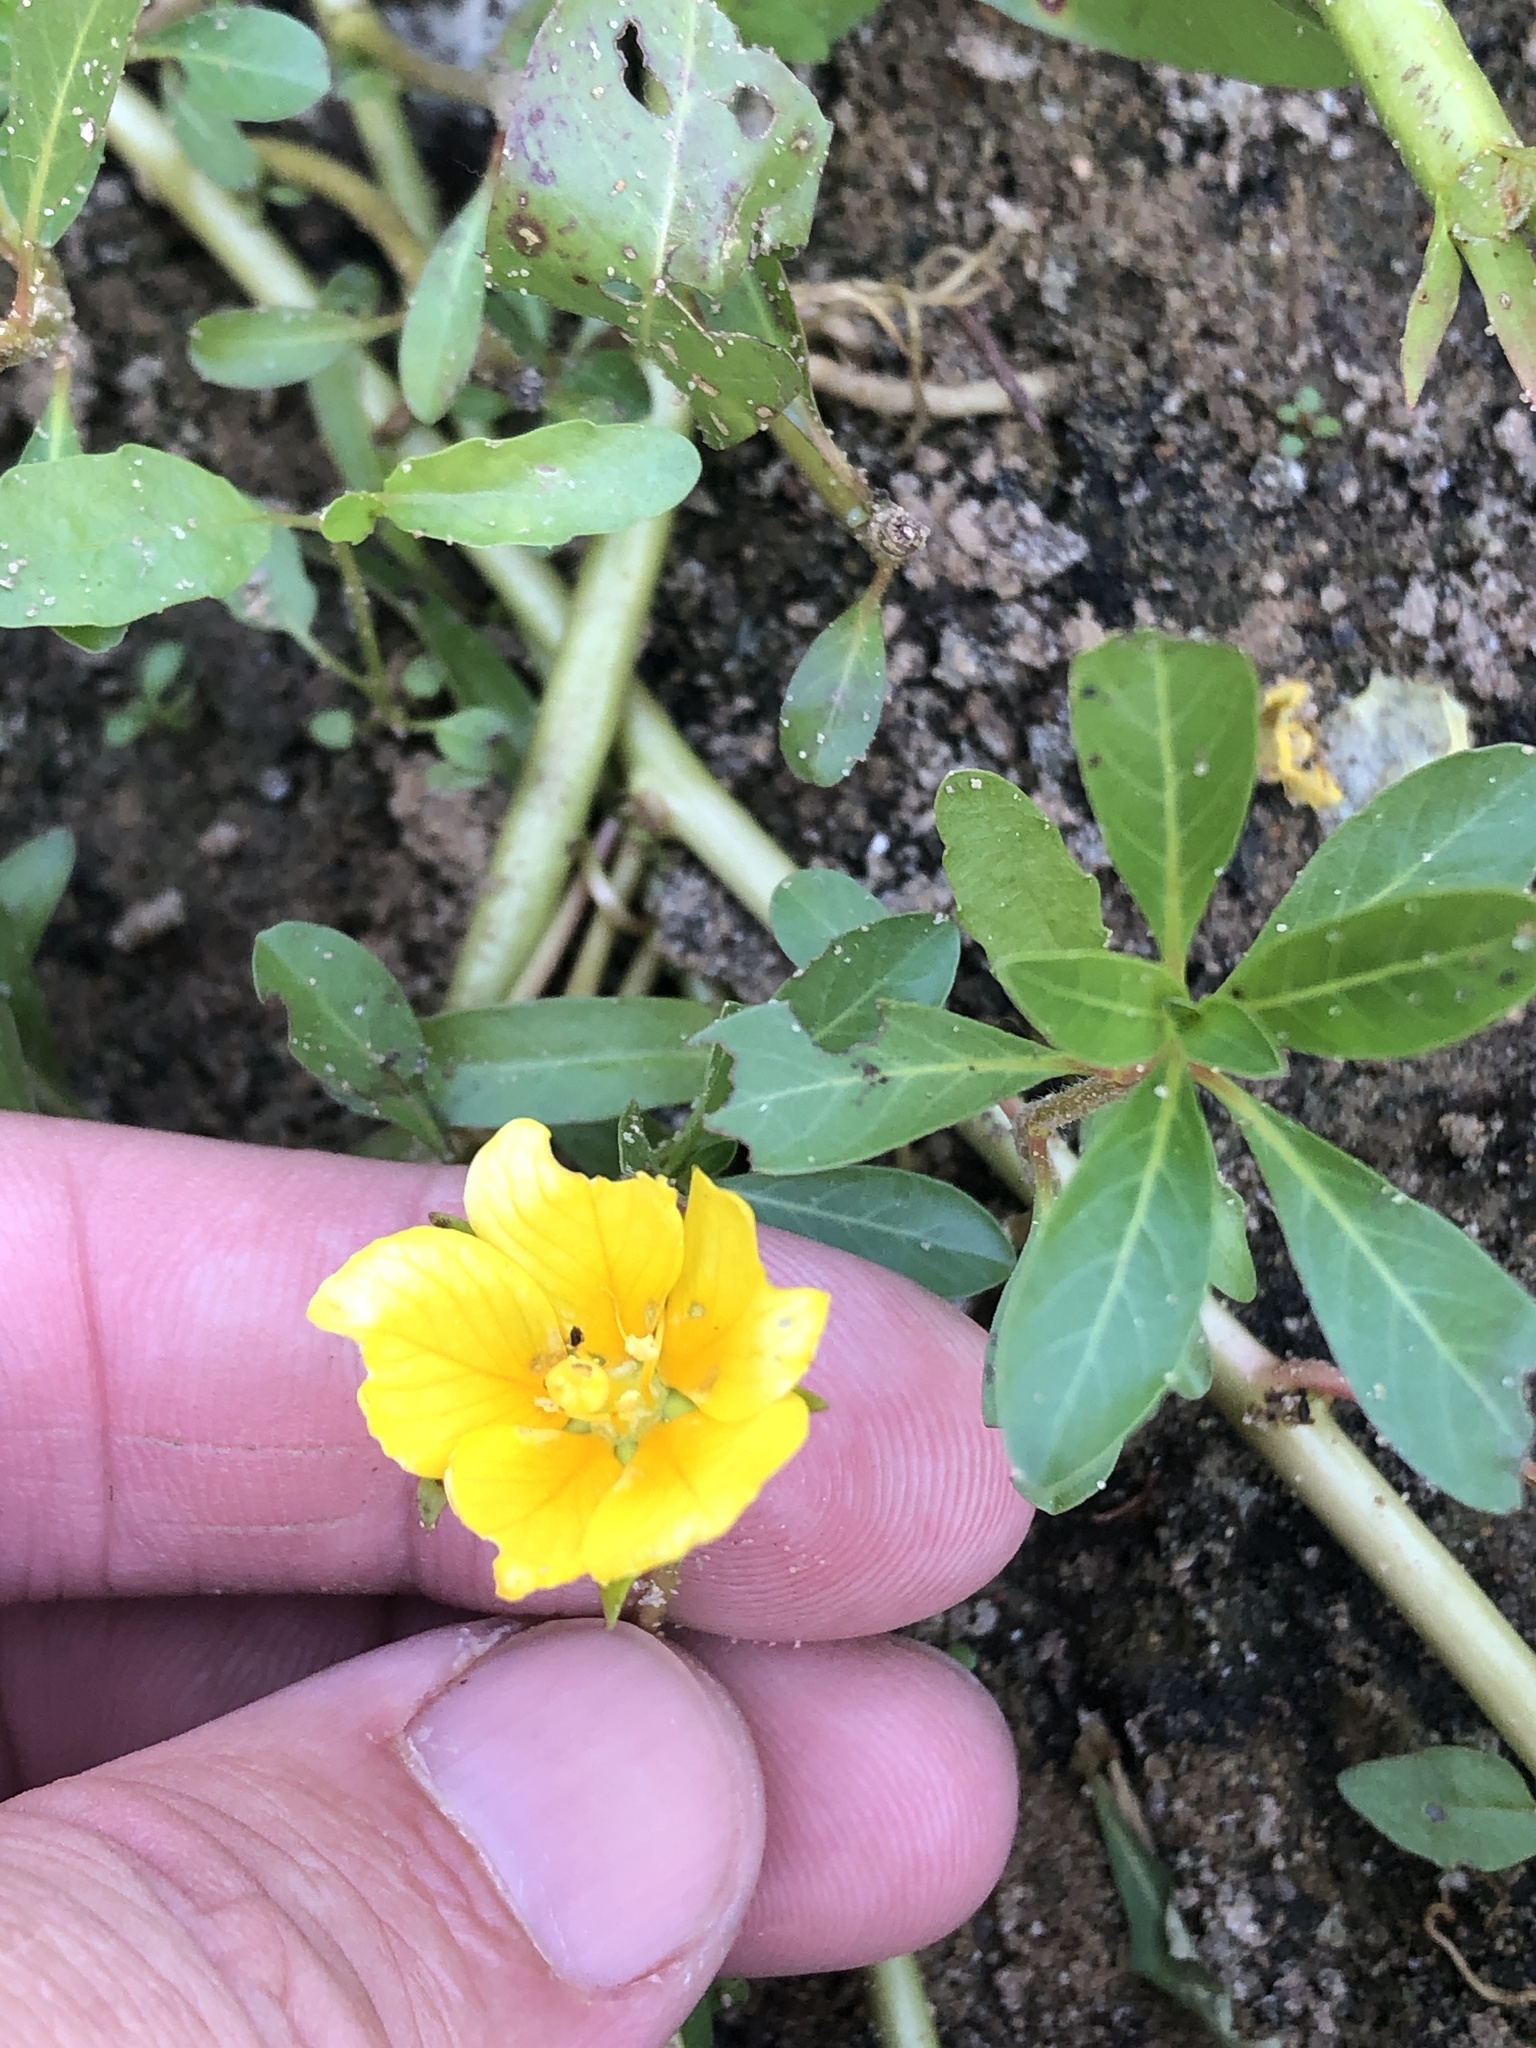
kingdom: Plantae
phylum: Tracheophyta
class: Magnoliopsida
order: Myrtales
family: Onagraceae
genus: Ludwigia
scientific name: Ludwigia peploides
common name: Floating primrose-willow
